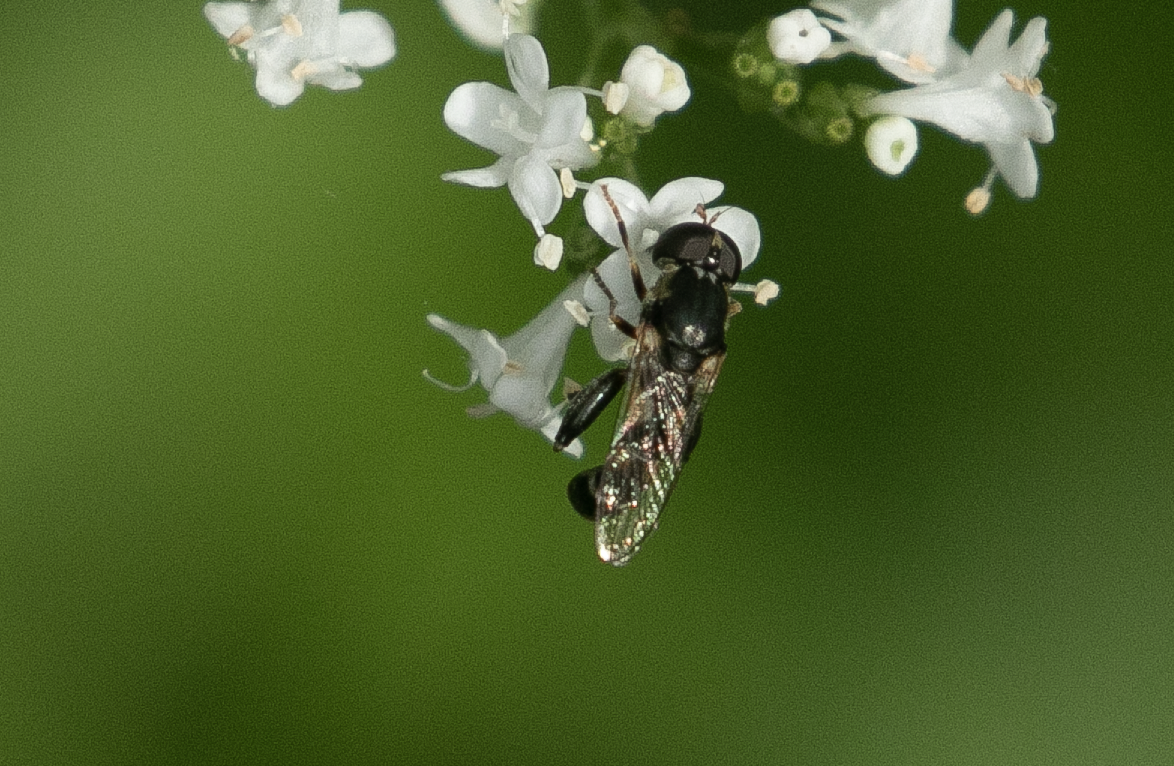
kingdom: Animalia
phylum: Arthropoda
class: Insecta
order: Diptera
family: Syrphidae
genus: Syritta
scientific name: Syritta pipiens
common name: Hover fly
